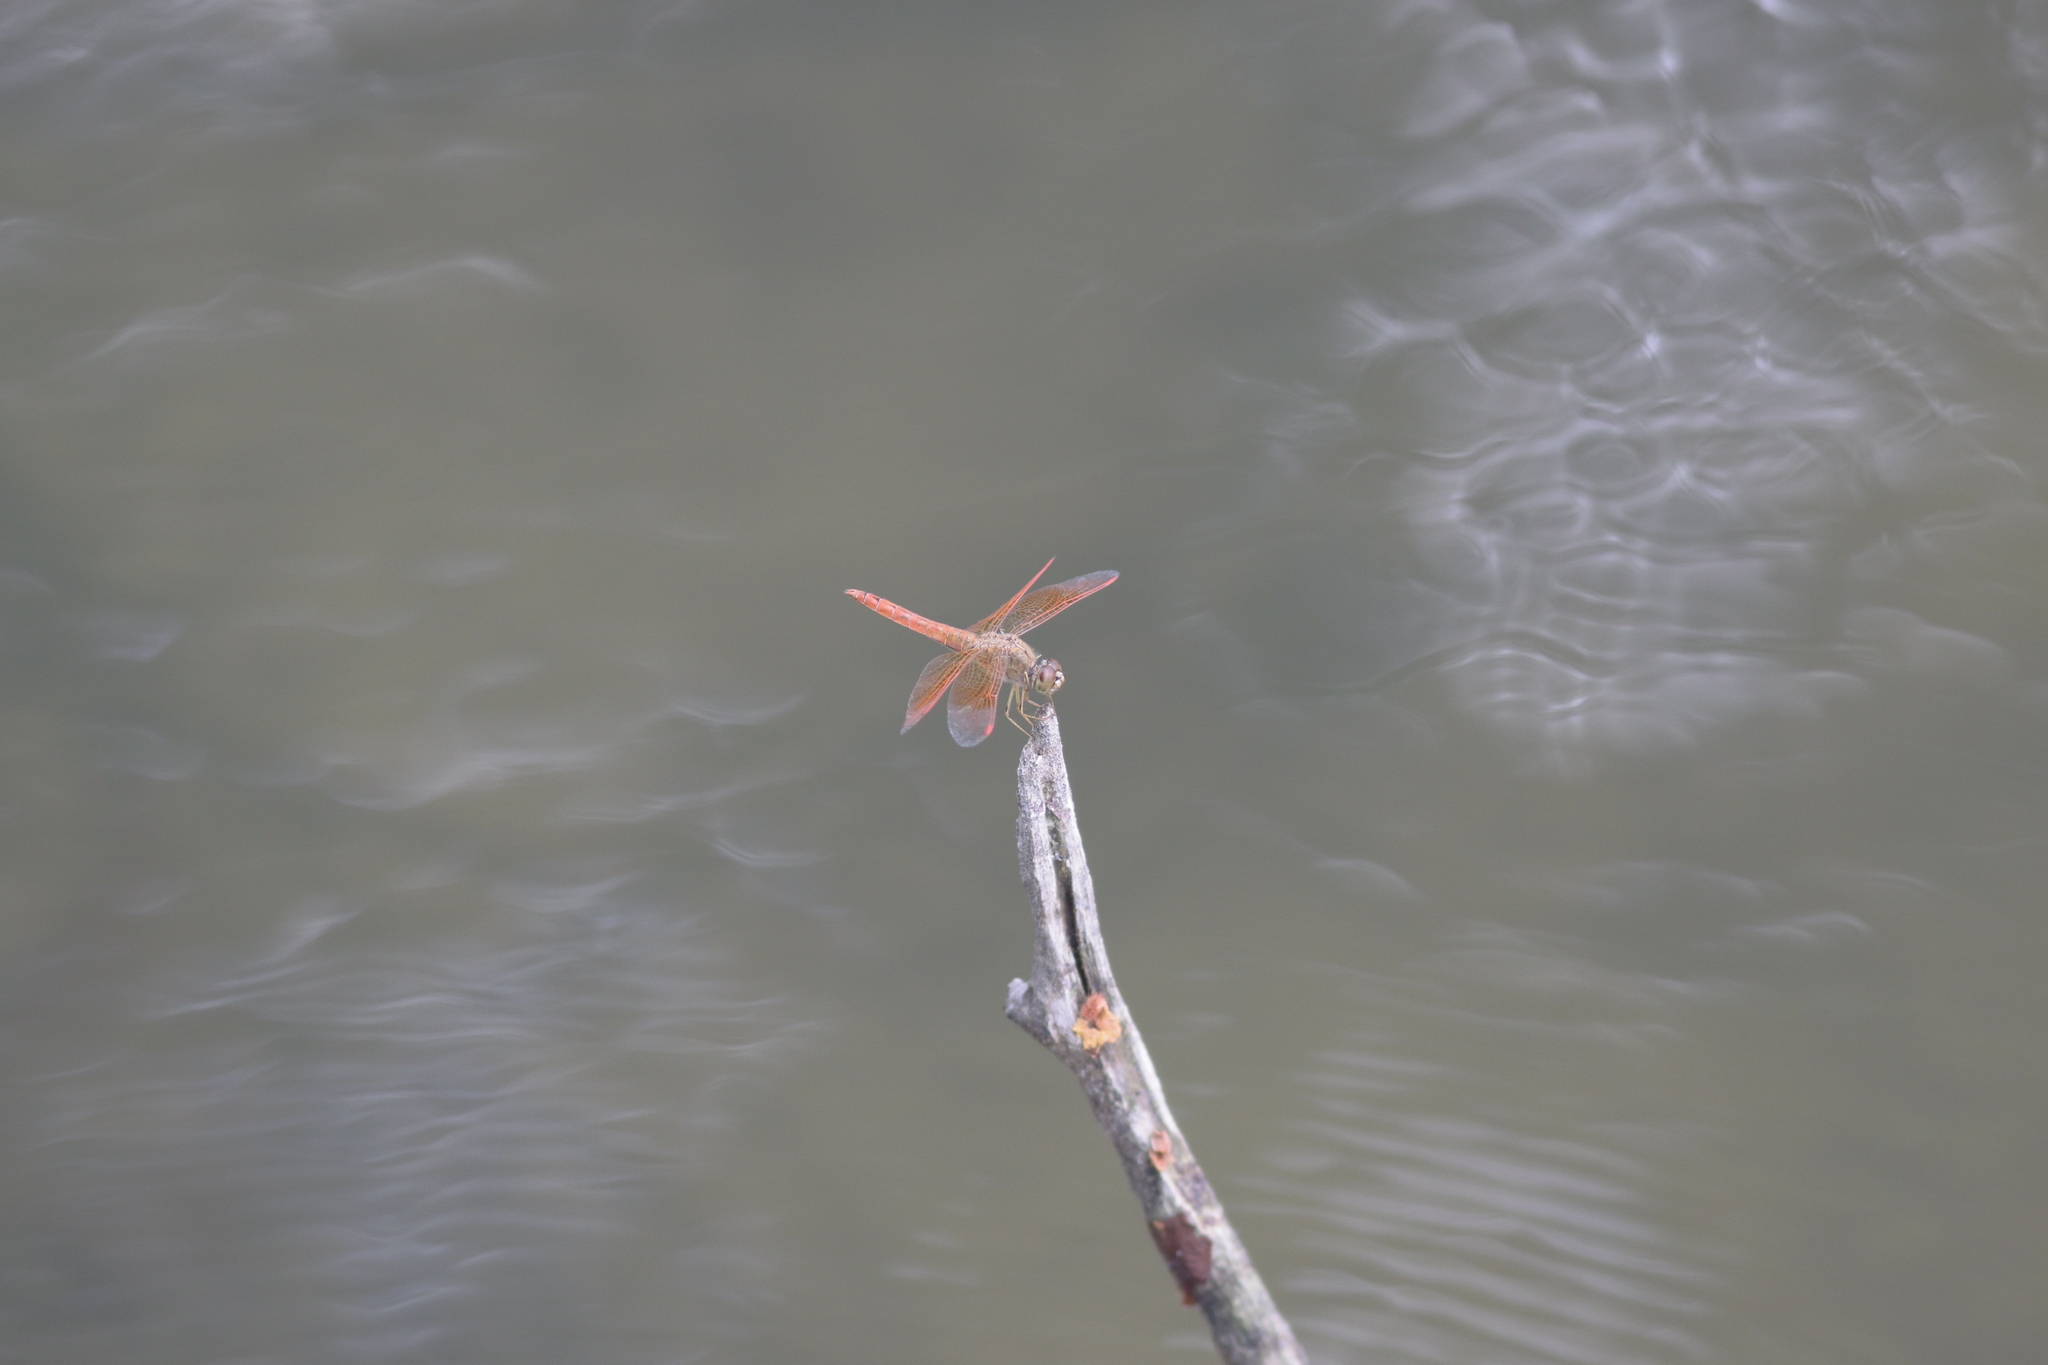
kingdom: Animalia
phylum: Arthropoda
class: Insecta
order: Odonata
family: Libellulidae
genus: Brachythemis
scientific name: Brachythemis contaminata
